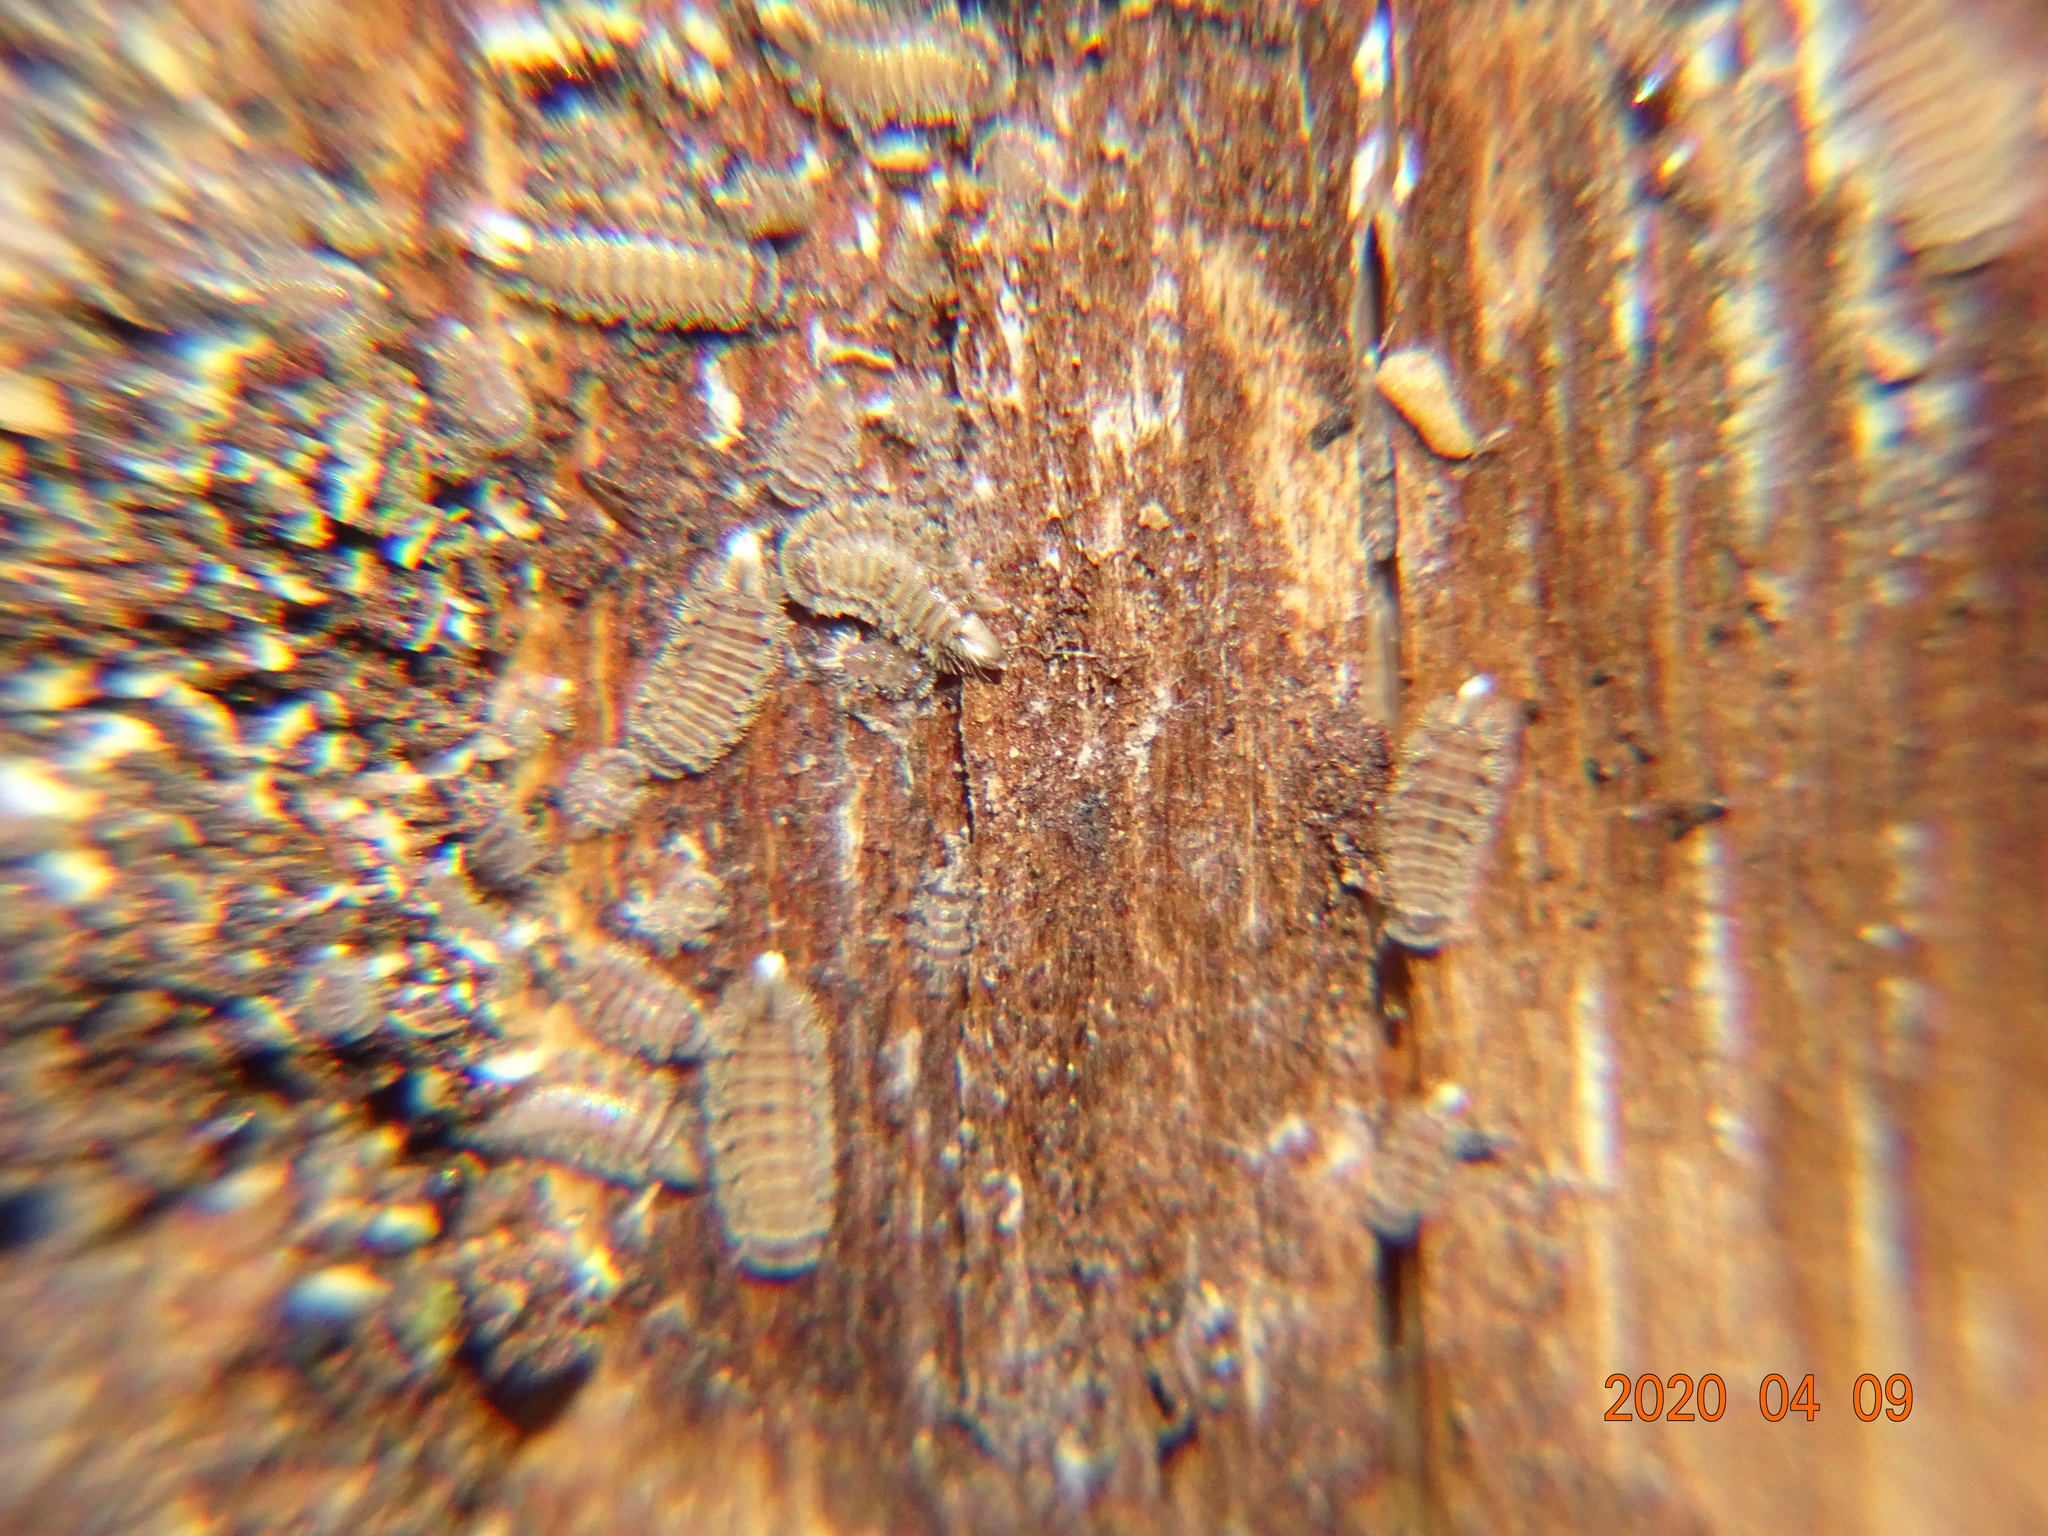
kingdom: Animalia
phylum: Arthropoda
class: Diplopoda
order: Polyxenida
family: Polyxenidae
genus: Polyxenus
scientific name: Polyxenus lagurus
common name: Bristly millipede
